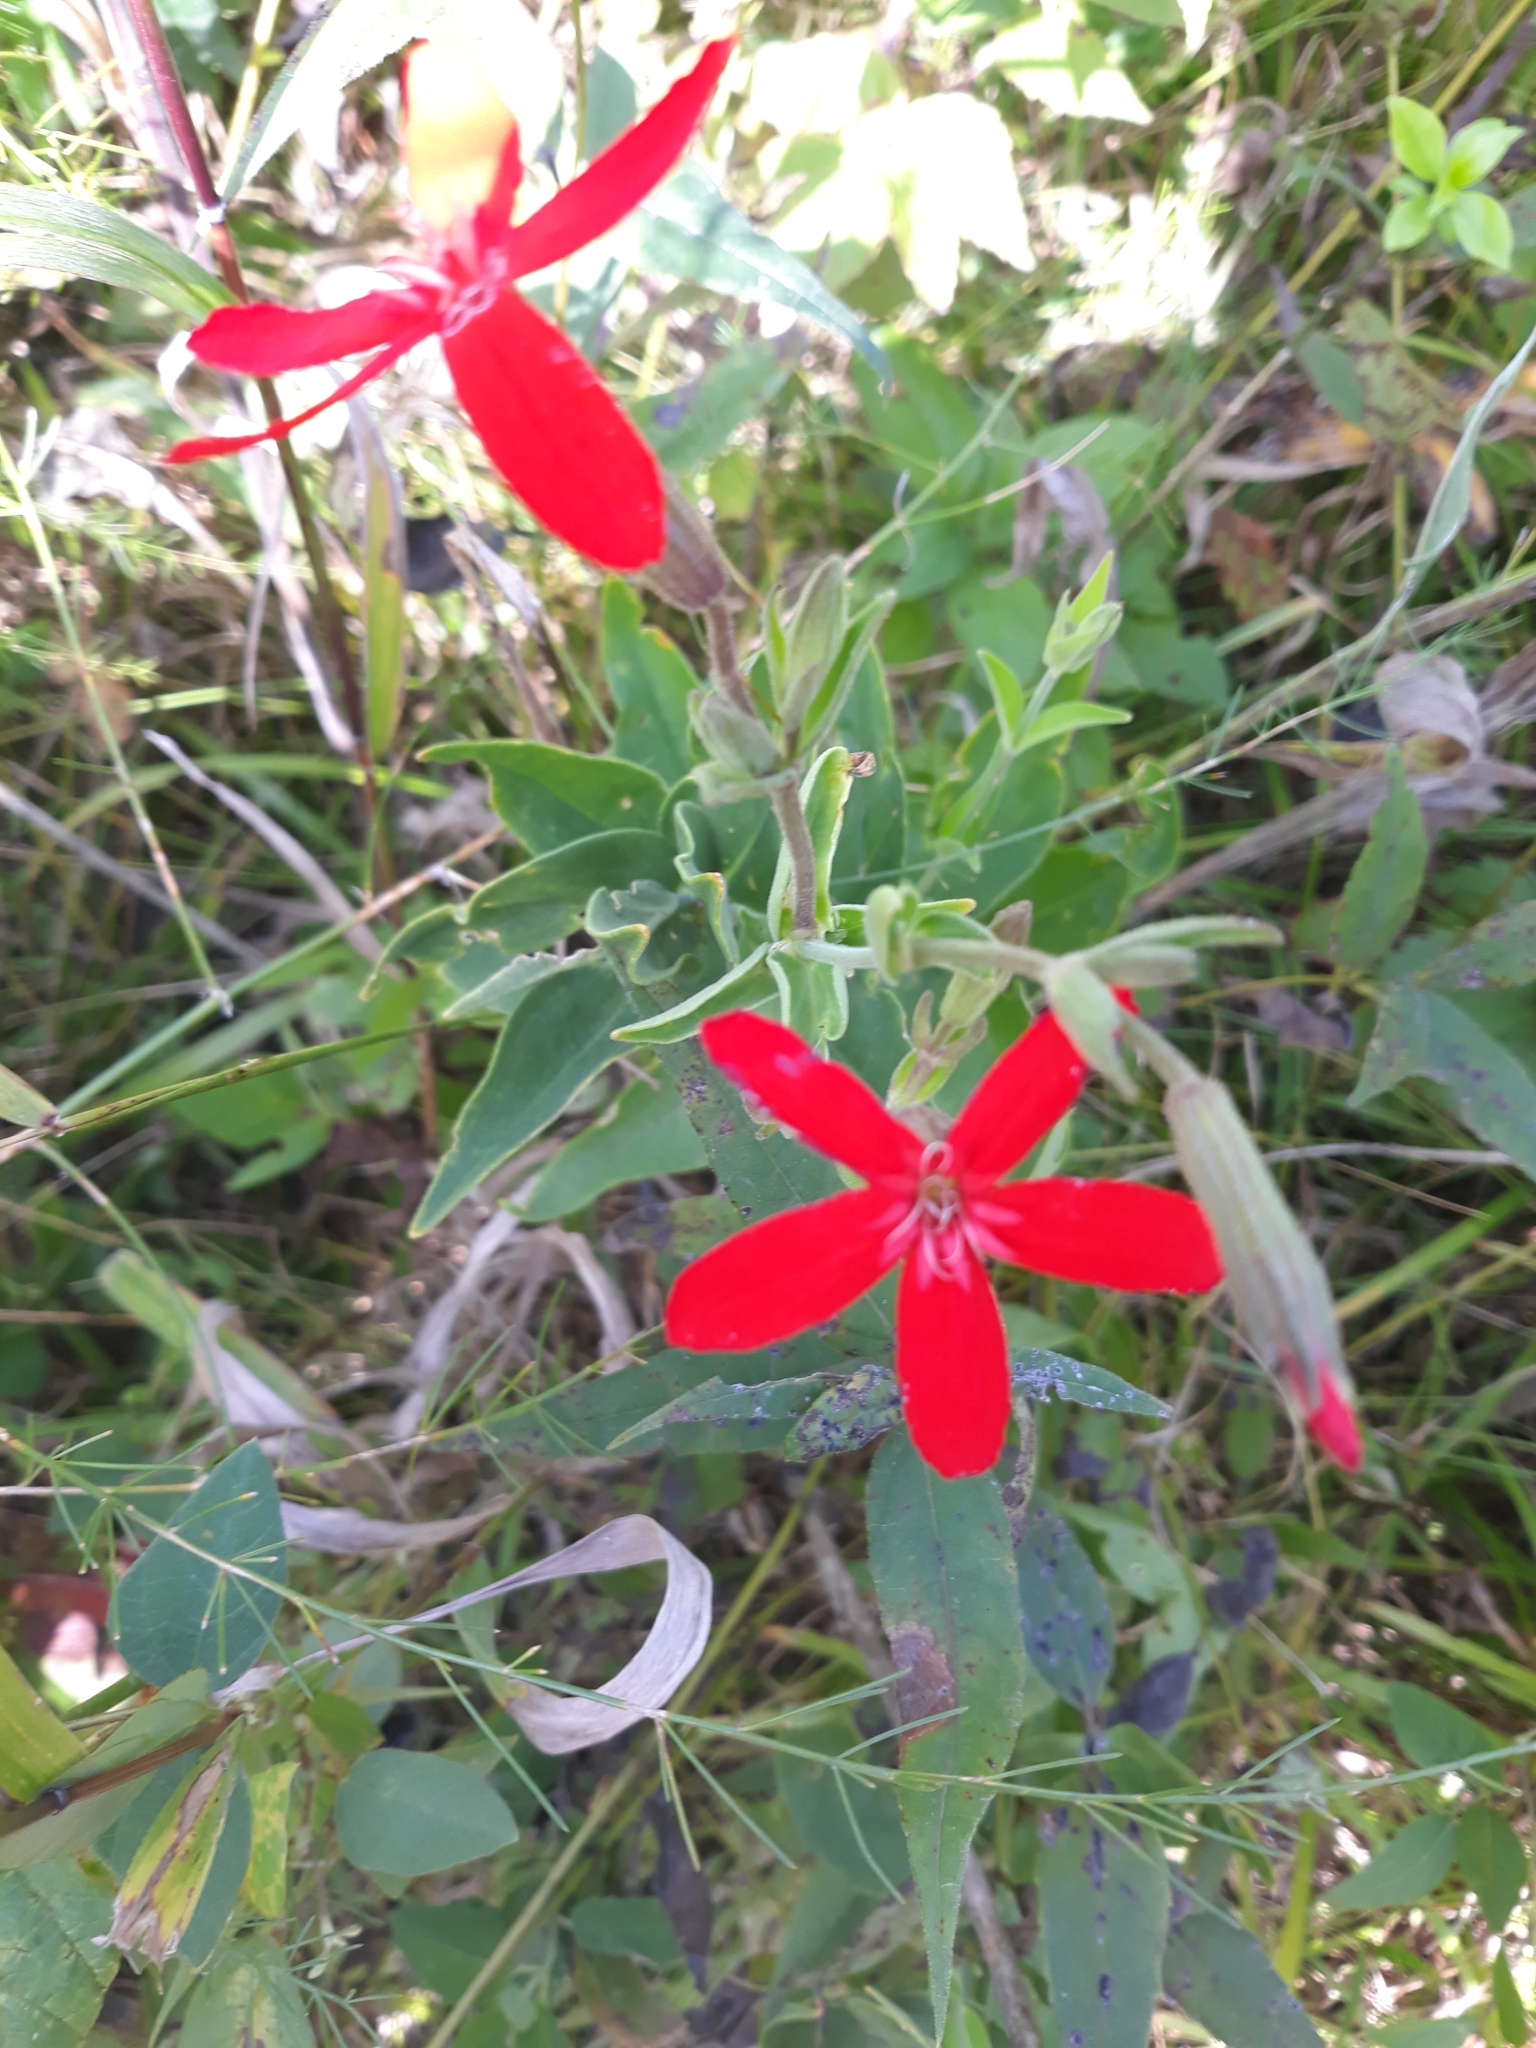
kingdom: Plantae
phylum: Tracheophyta
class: Magnoliopsida
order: Caryophyllales
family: Caryophyllaceae
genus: Silene
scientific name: Silene regia
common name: Royal catchfly
